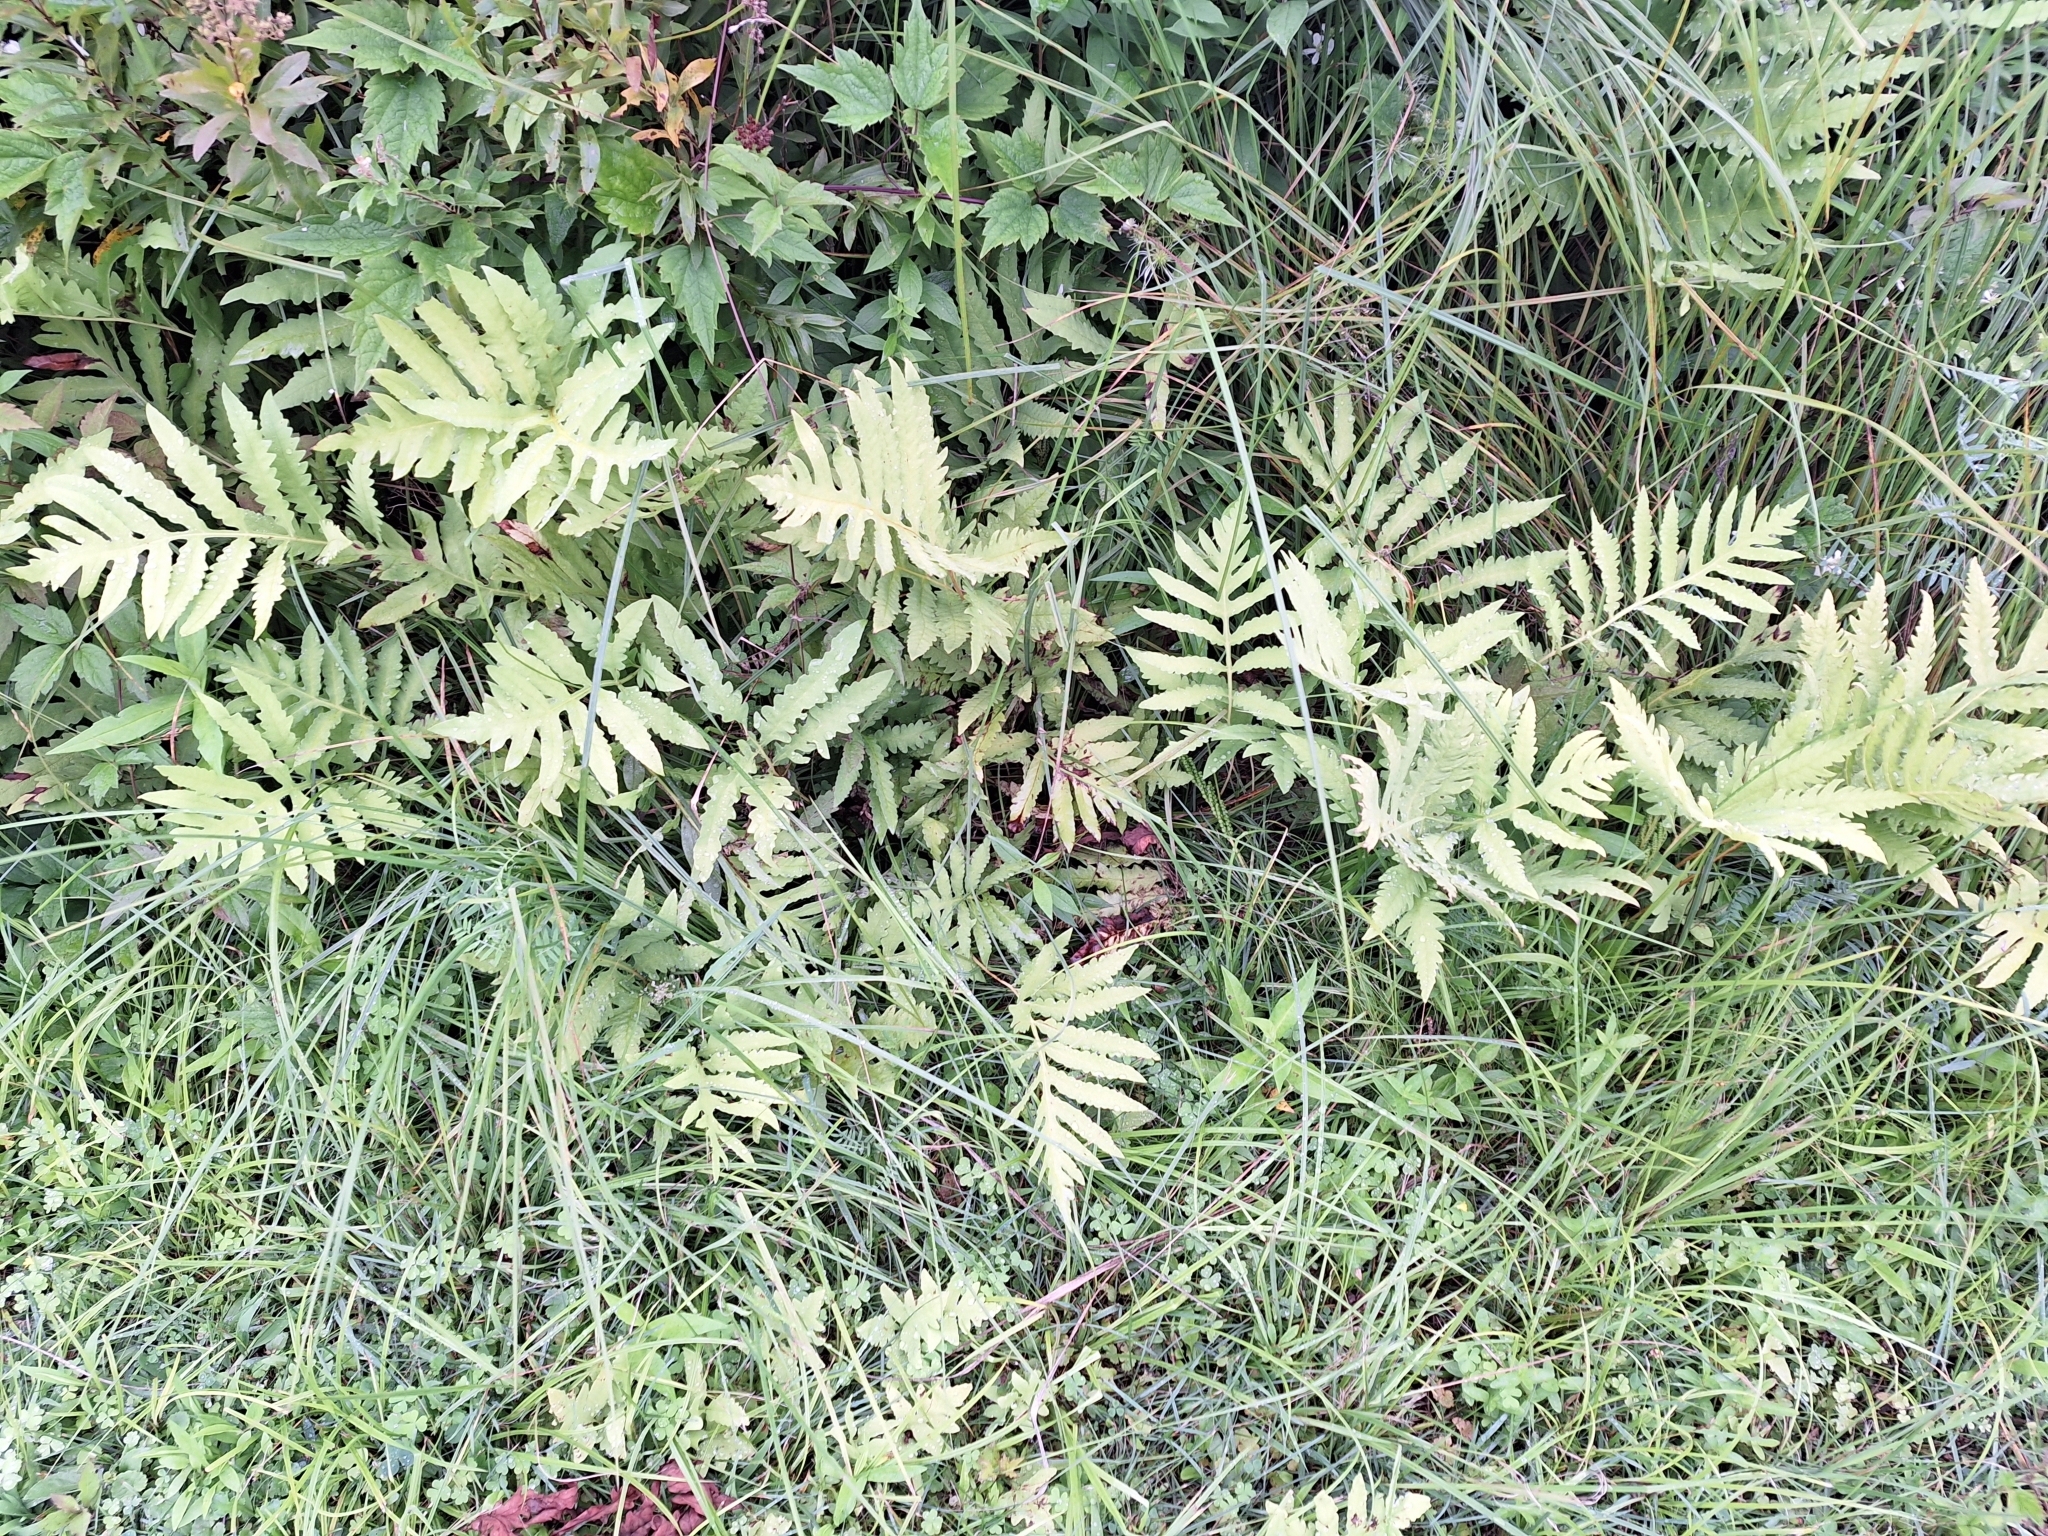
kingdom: Plantae
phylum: Tracheophyta
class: Polypodiopsida
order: Polypodiales
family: Onocleaceae
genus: Onoclea
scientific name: Onoclea sensibilis
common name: Sensitive fern
